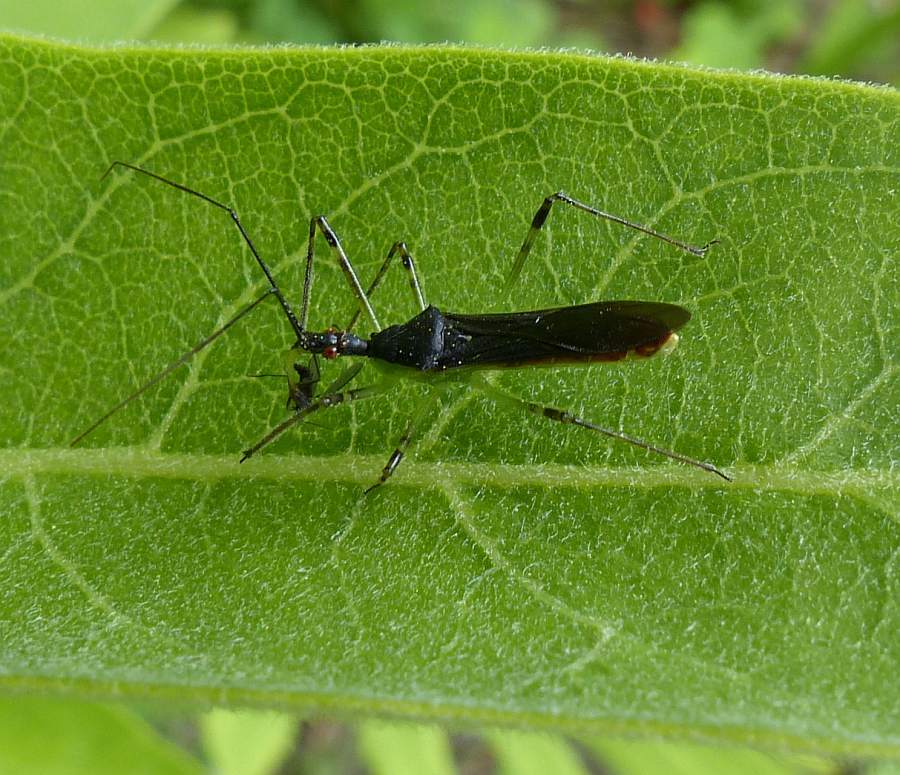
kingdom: Animalia
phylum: Arthropoda
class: Insecta
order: Hemiptera
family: Reduviidae
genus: Zelus
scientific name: Zelus luridus
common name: Pale green assassin bug
